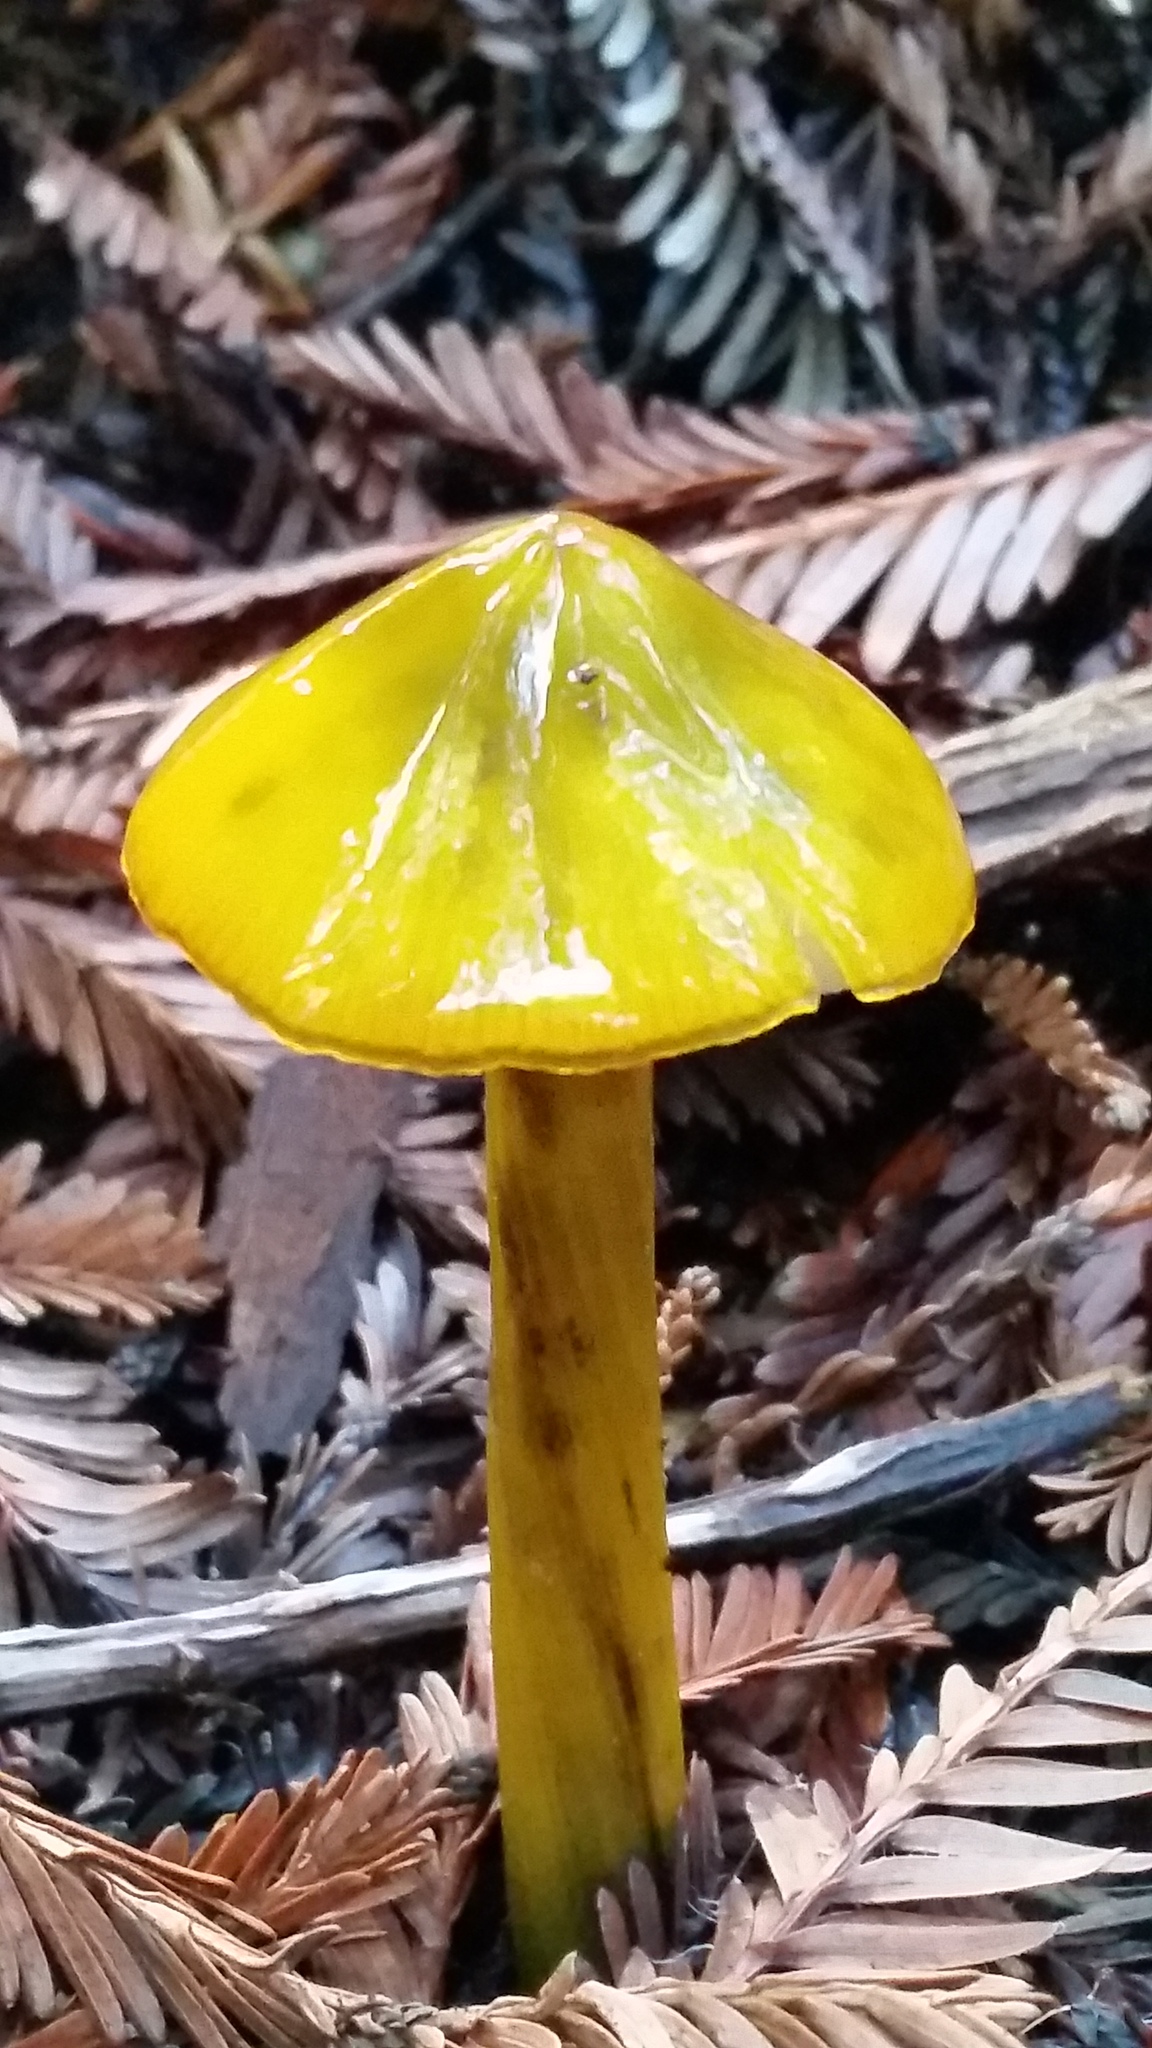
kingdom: Fungi
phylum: Basidiomycota
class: Agaricomycetes
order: Agaricales
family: Hygrophoraceae
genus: Hygrocybe
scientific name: Hygrocybe singeri
